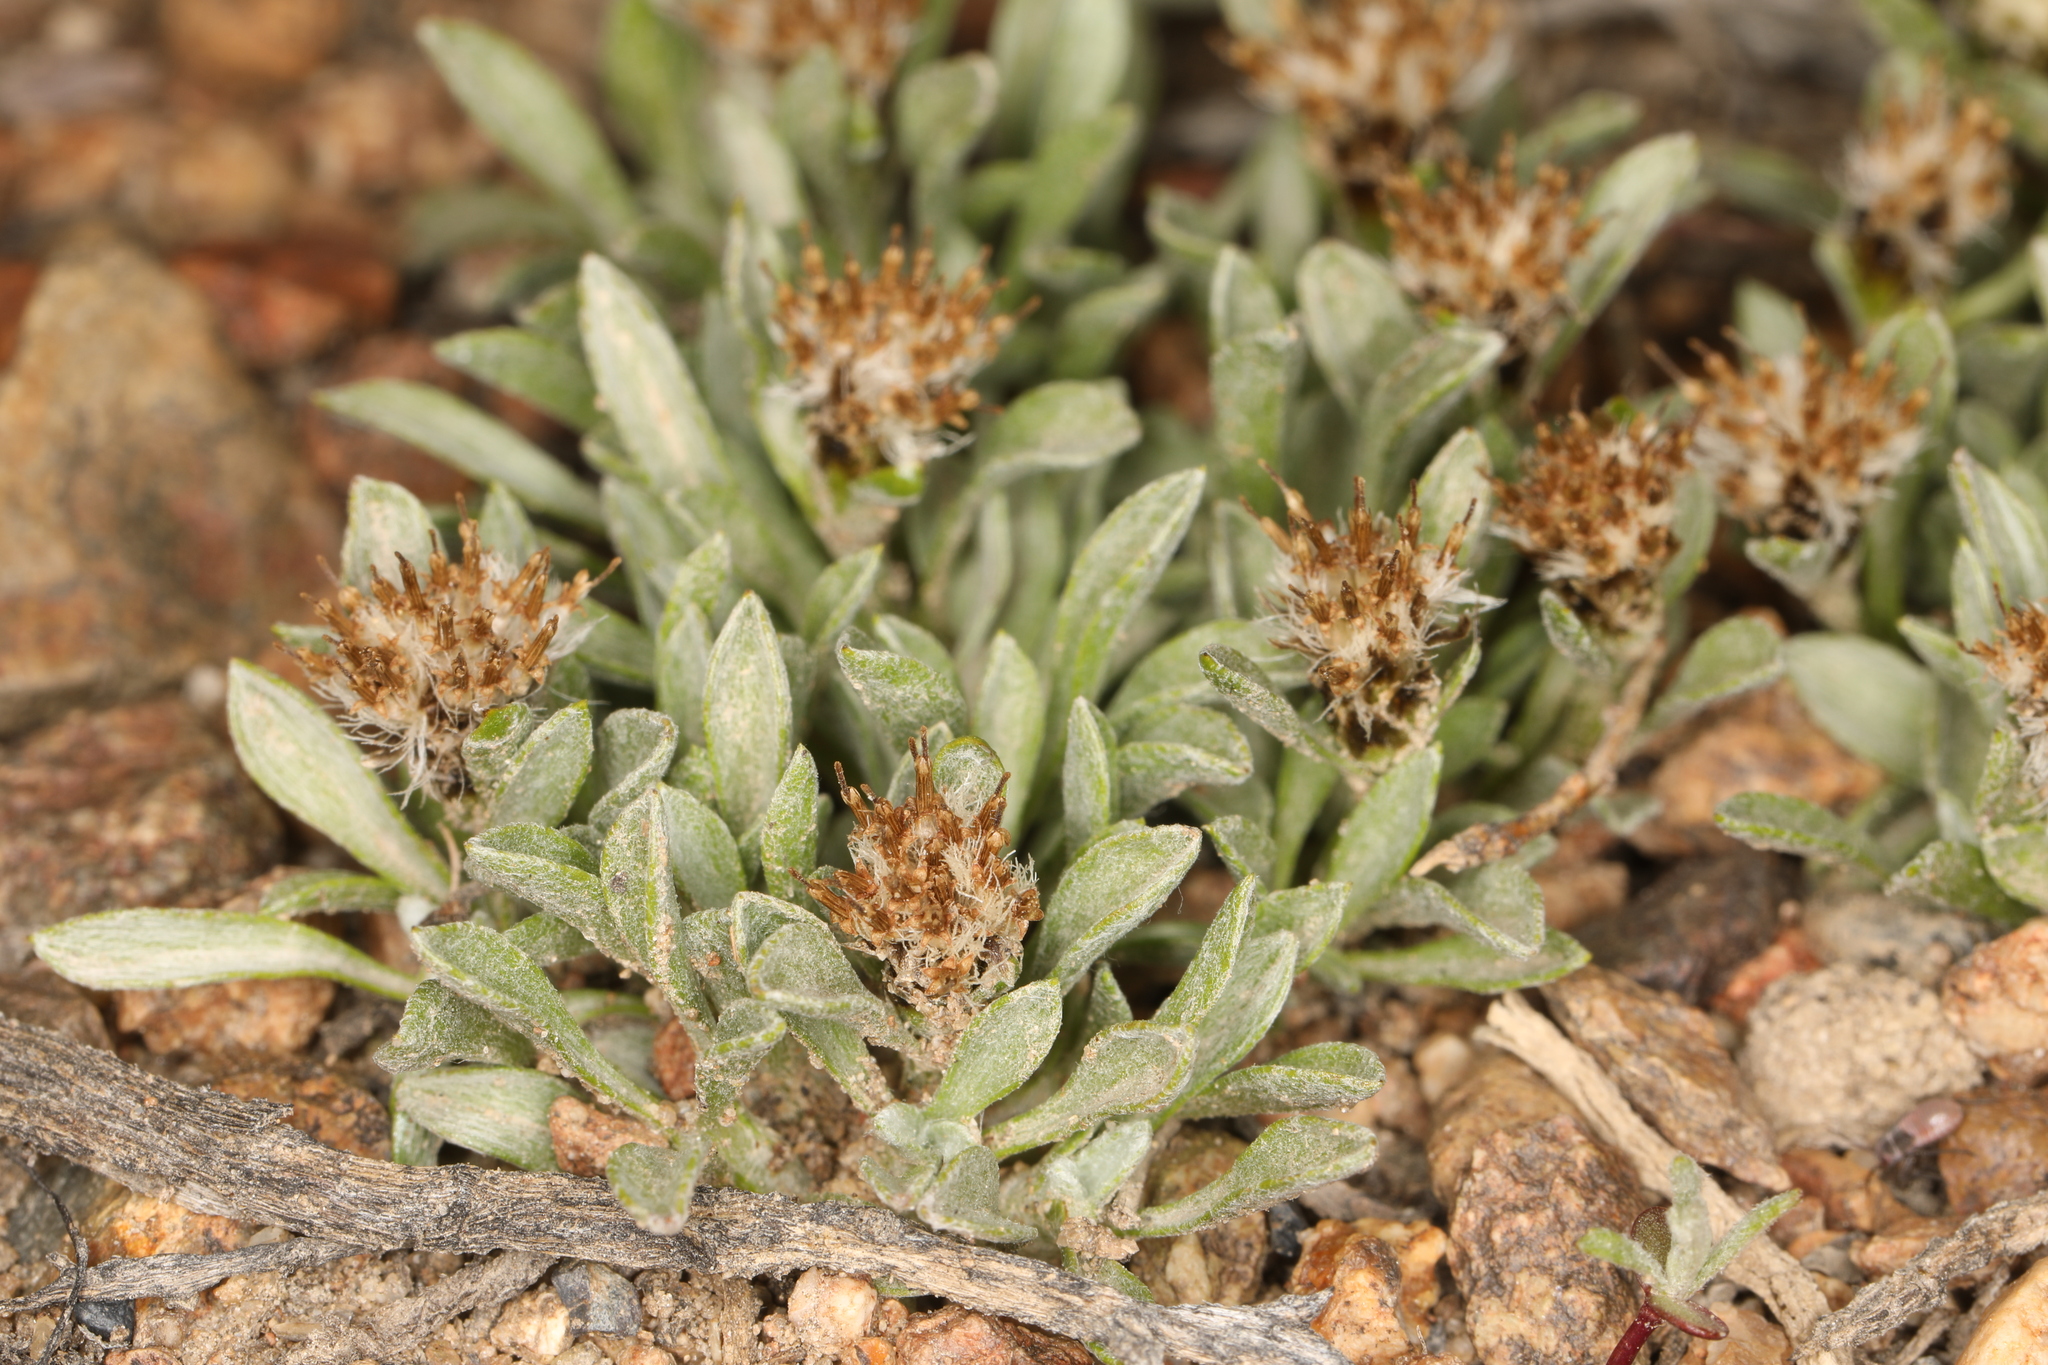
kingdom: Plantae
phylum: Tracheophyta
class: Magnoliopsida
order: Asterales
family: Asteraceae
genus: Antennaria
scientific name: Antennaria dimorpha
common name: Cushion pussytoes
